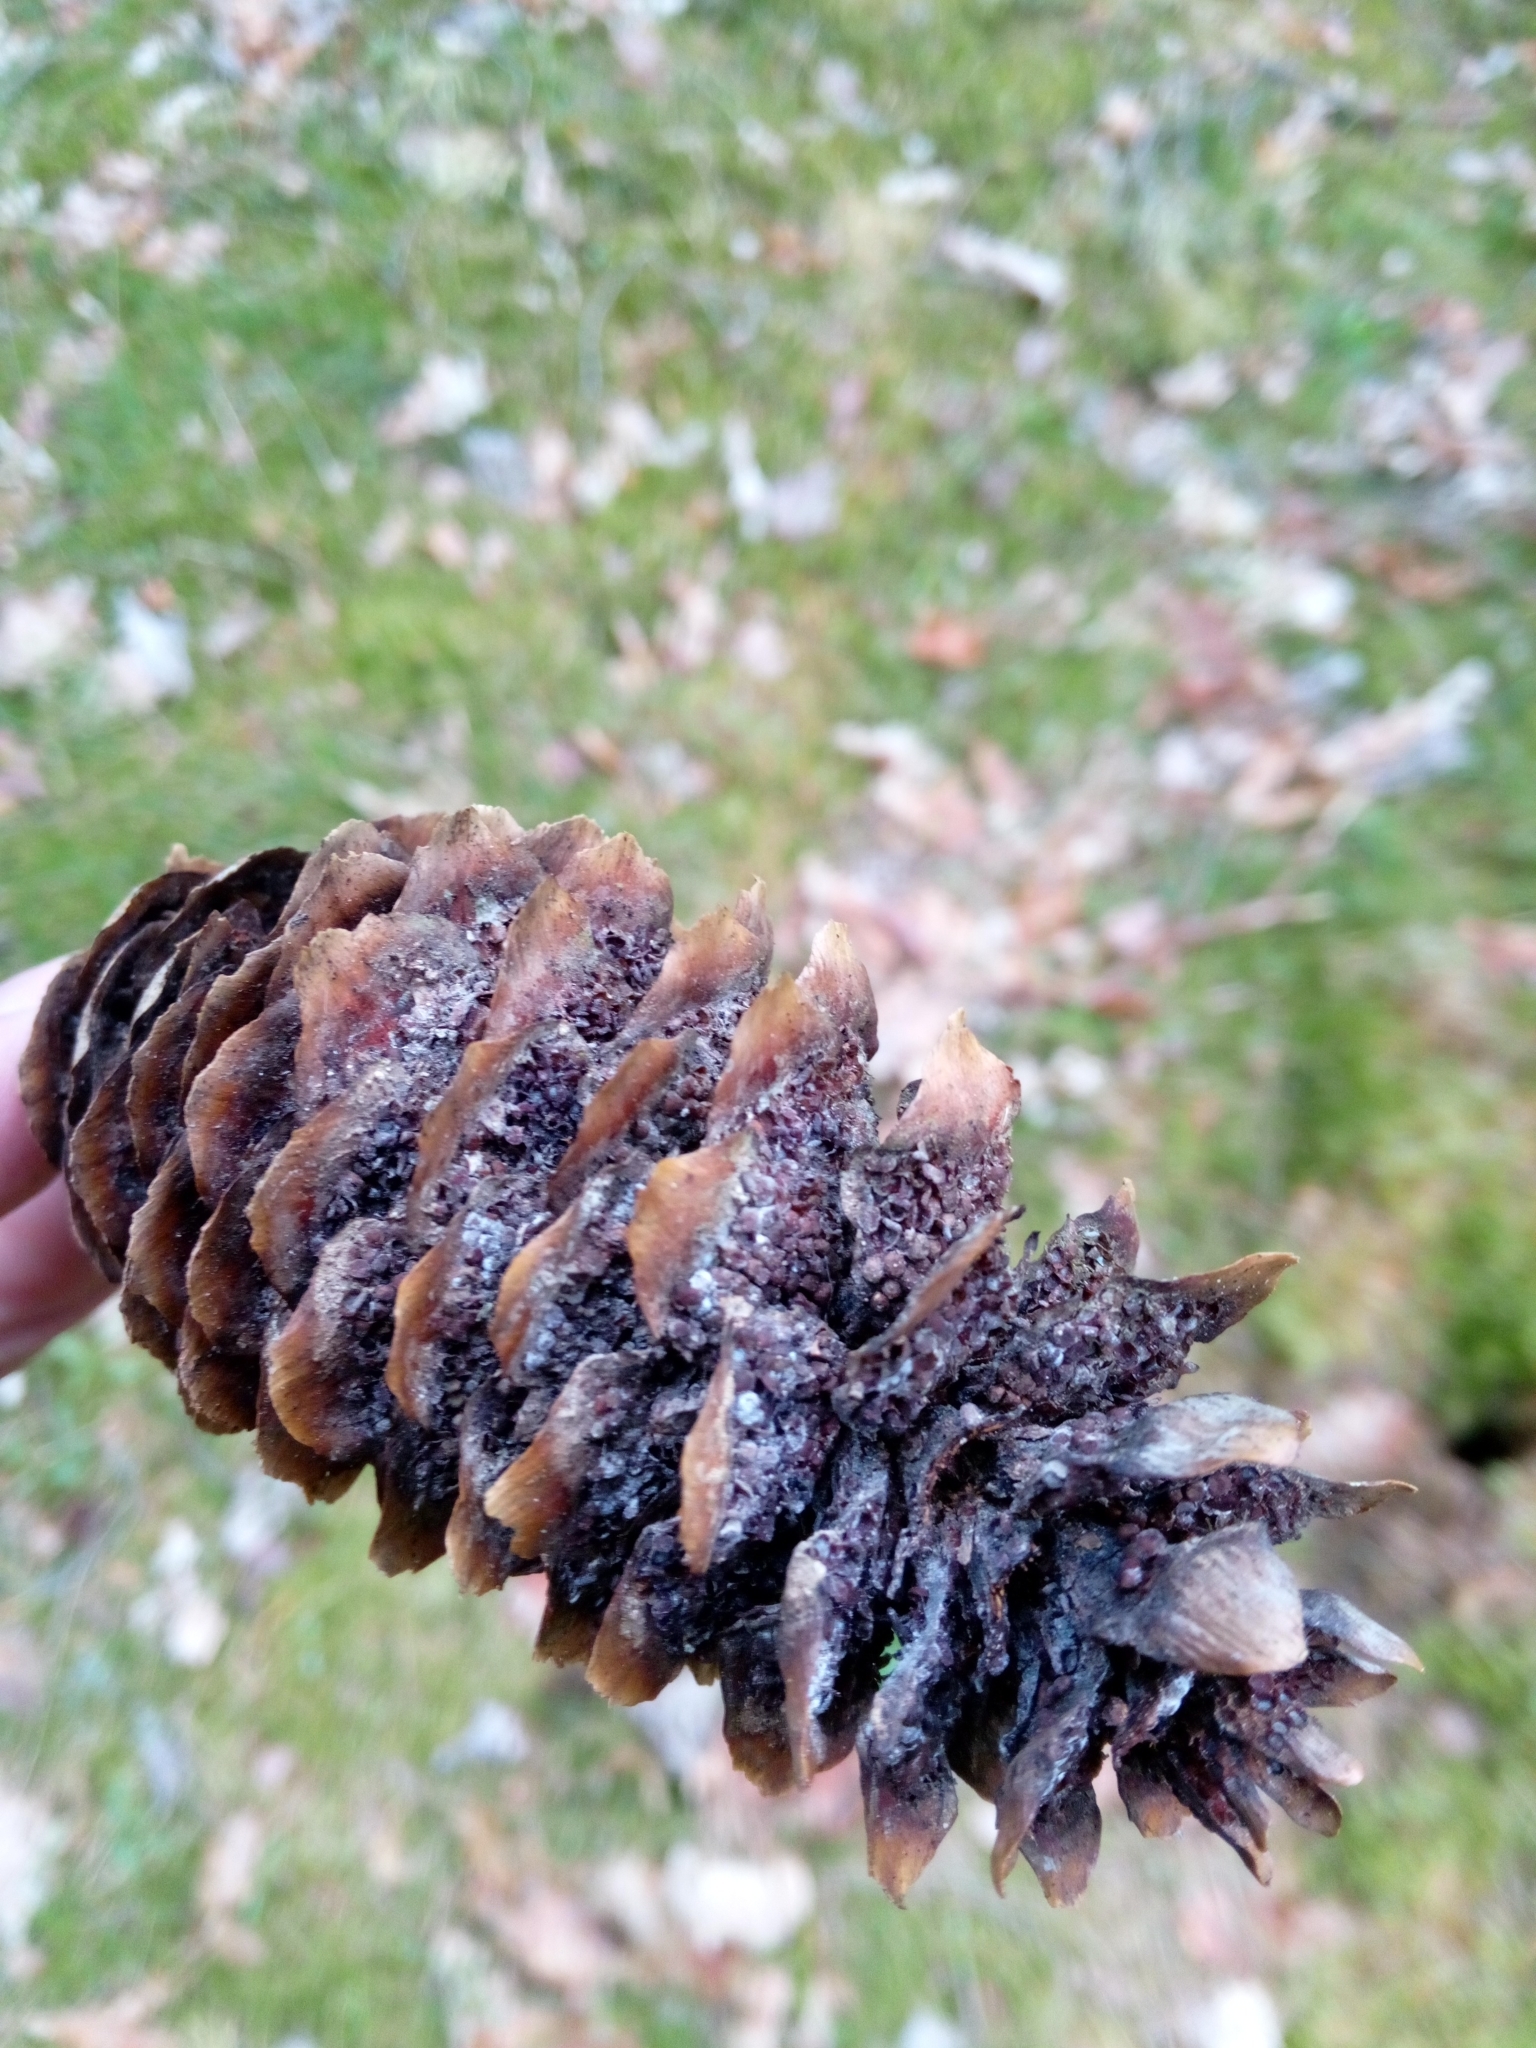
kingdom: Fungi
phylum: Basidiomycota
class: Pucciniomycetes
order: Pucciniales
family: Pucciniastraceae
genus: Thekopsora
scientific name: Thekopsora areolata
